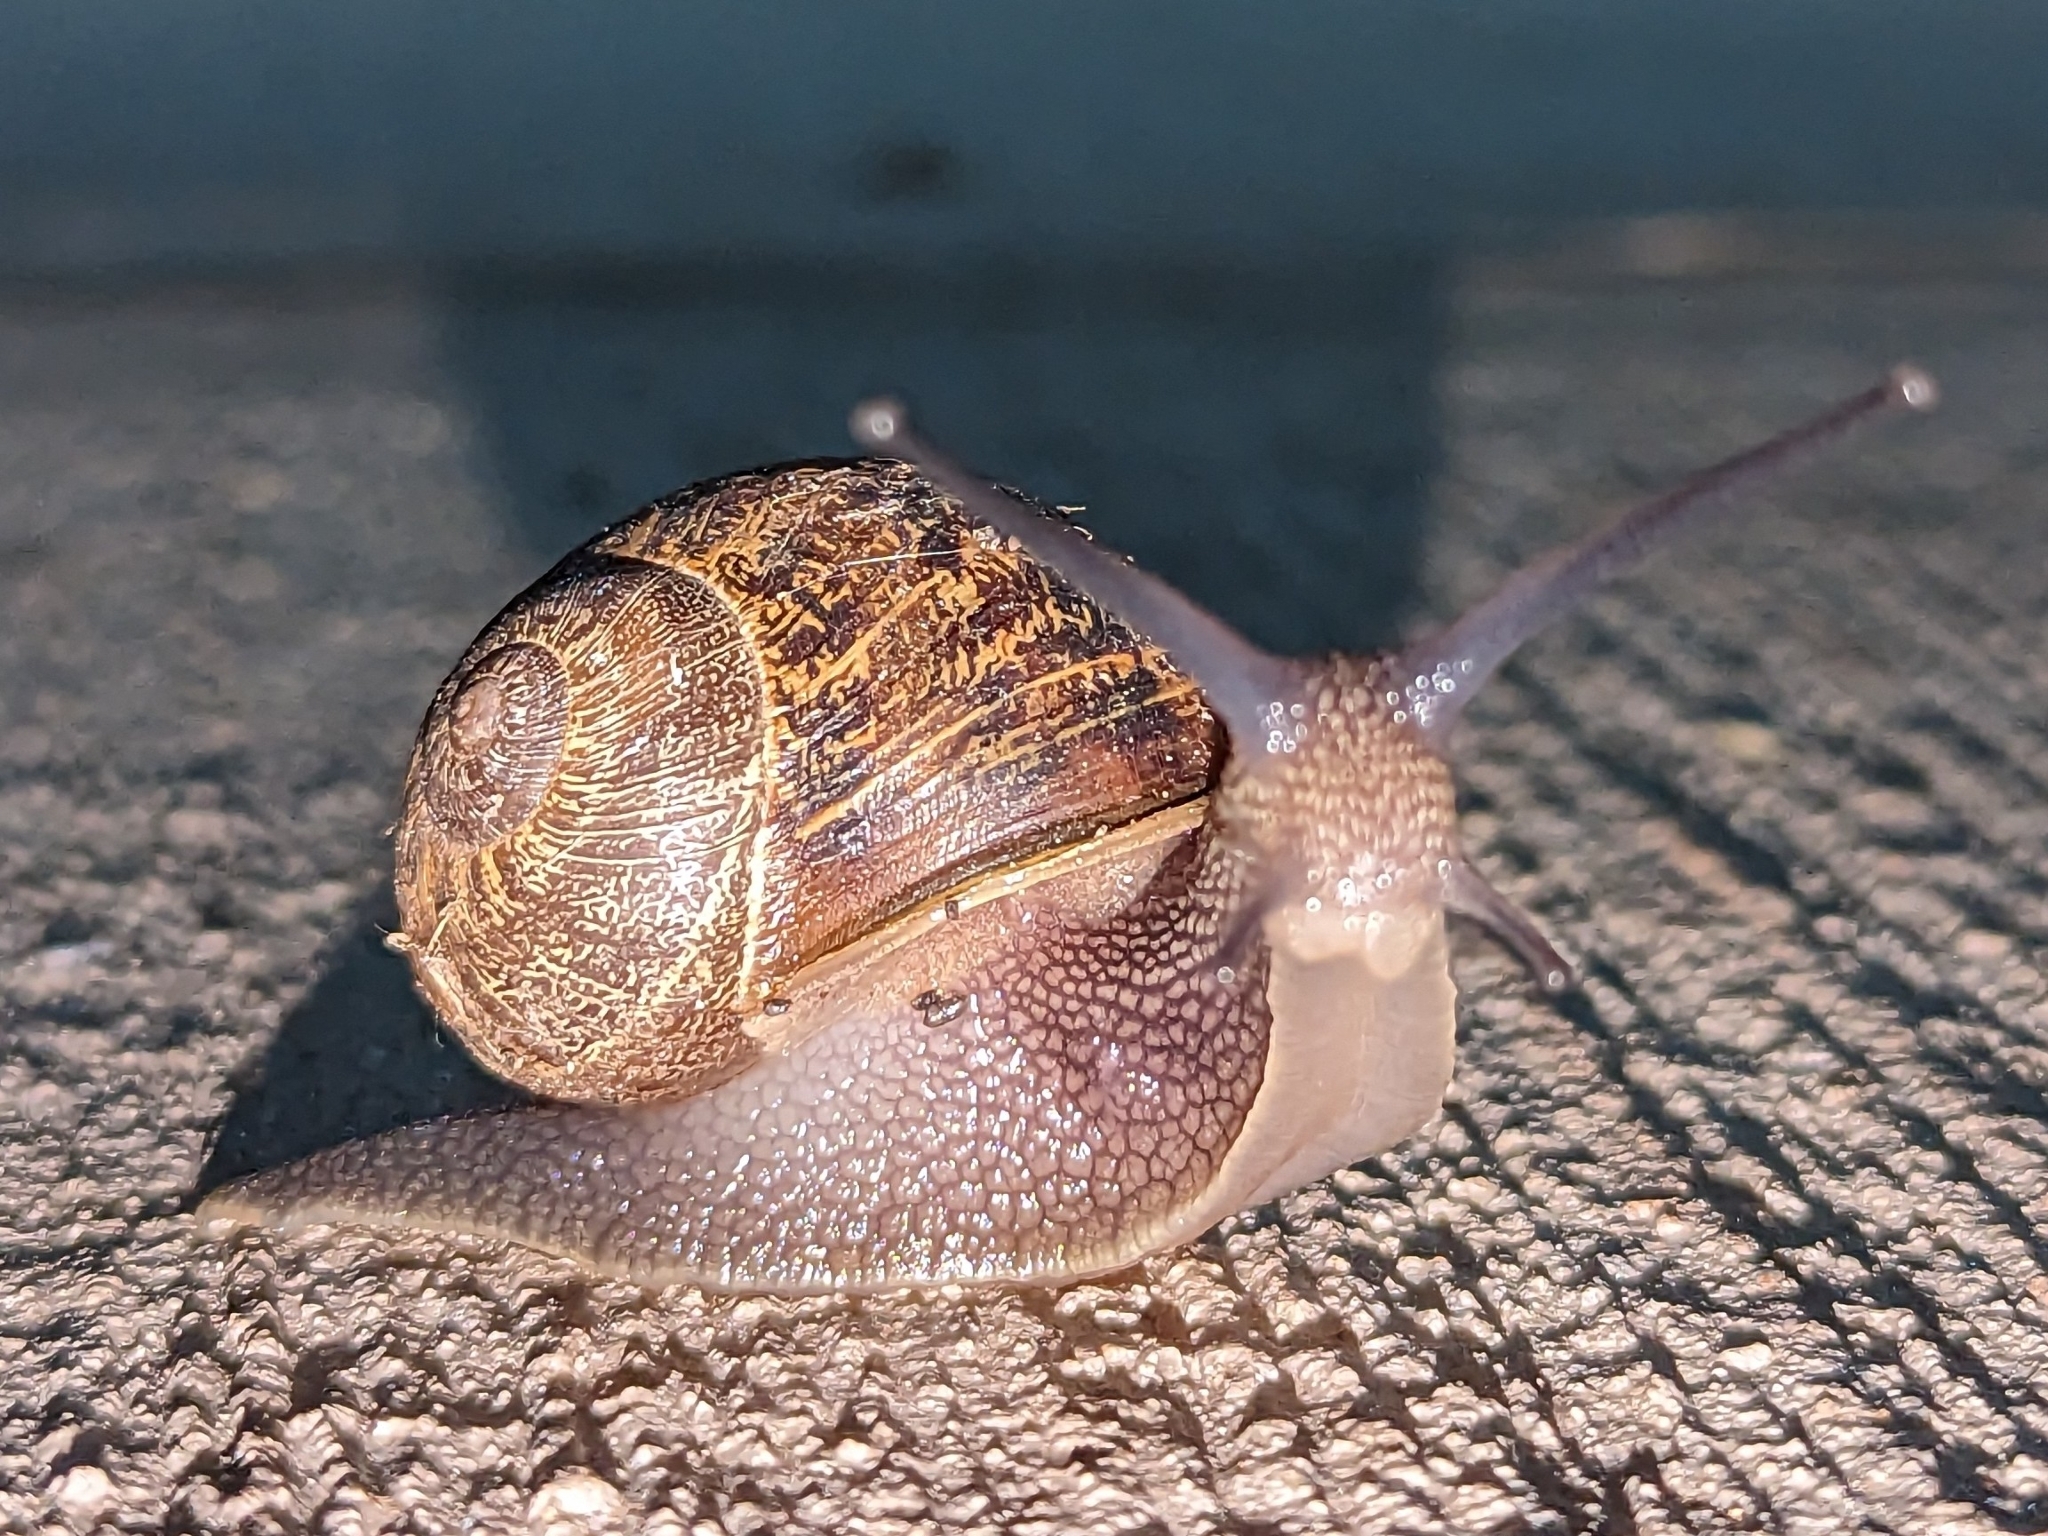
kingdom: Animalia
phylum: Mollusca
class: Gastropoda
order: Stylommatophora
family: Helicidae
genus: Cornu
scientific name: Cornu aspersum
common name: Brown garden snail
